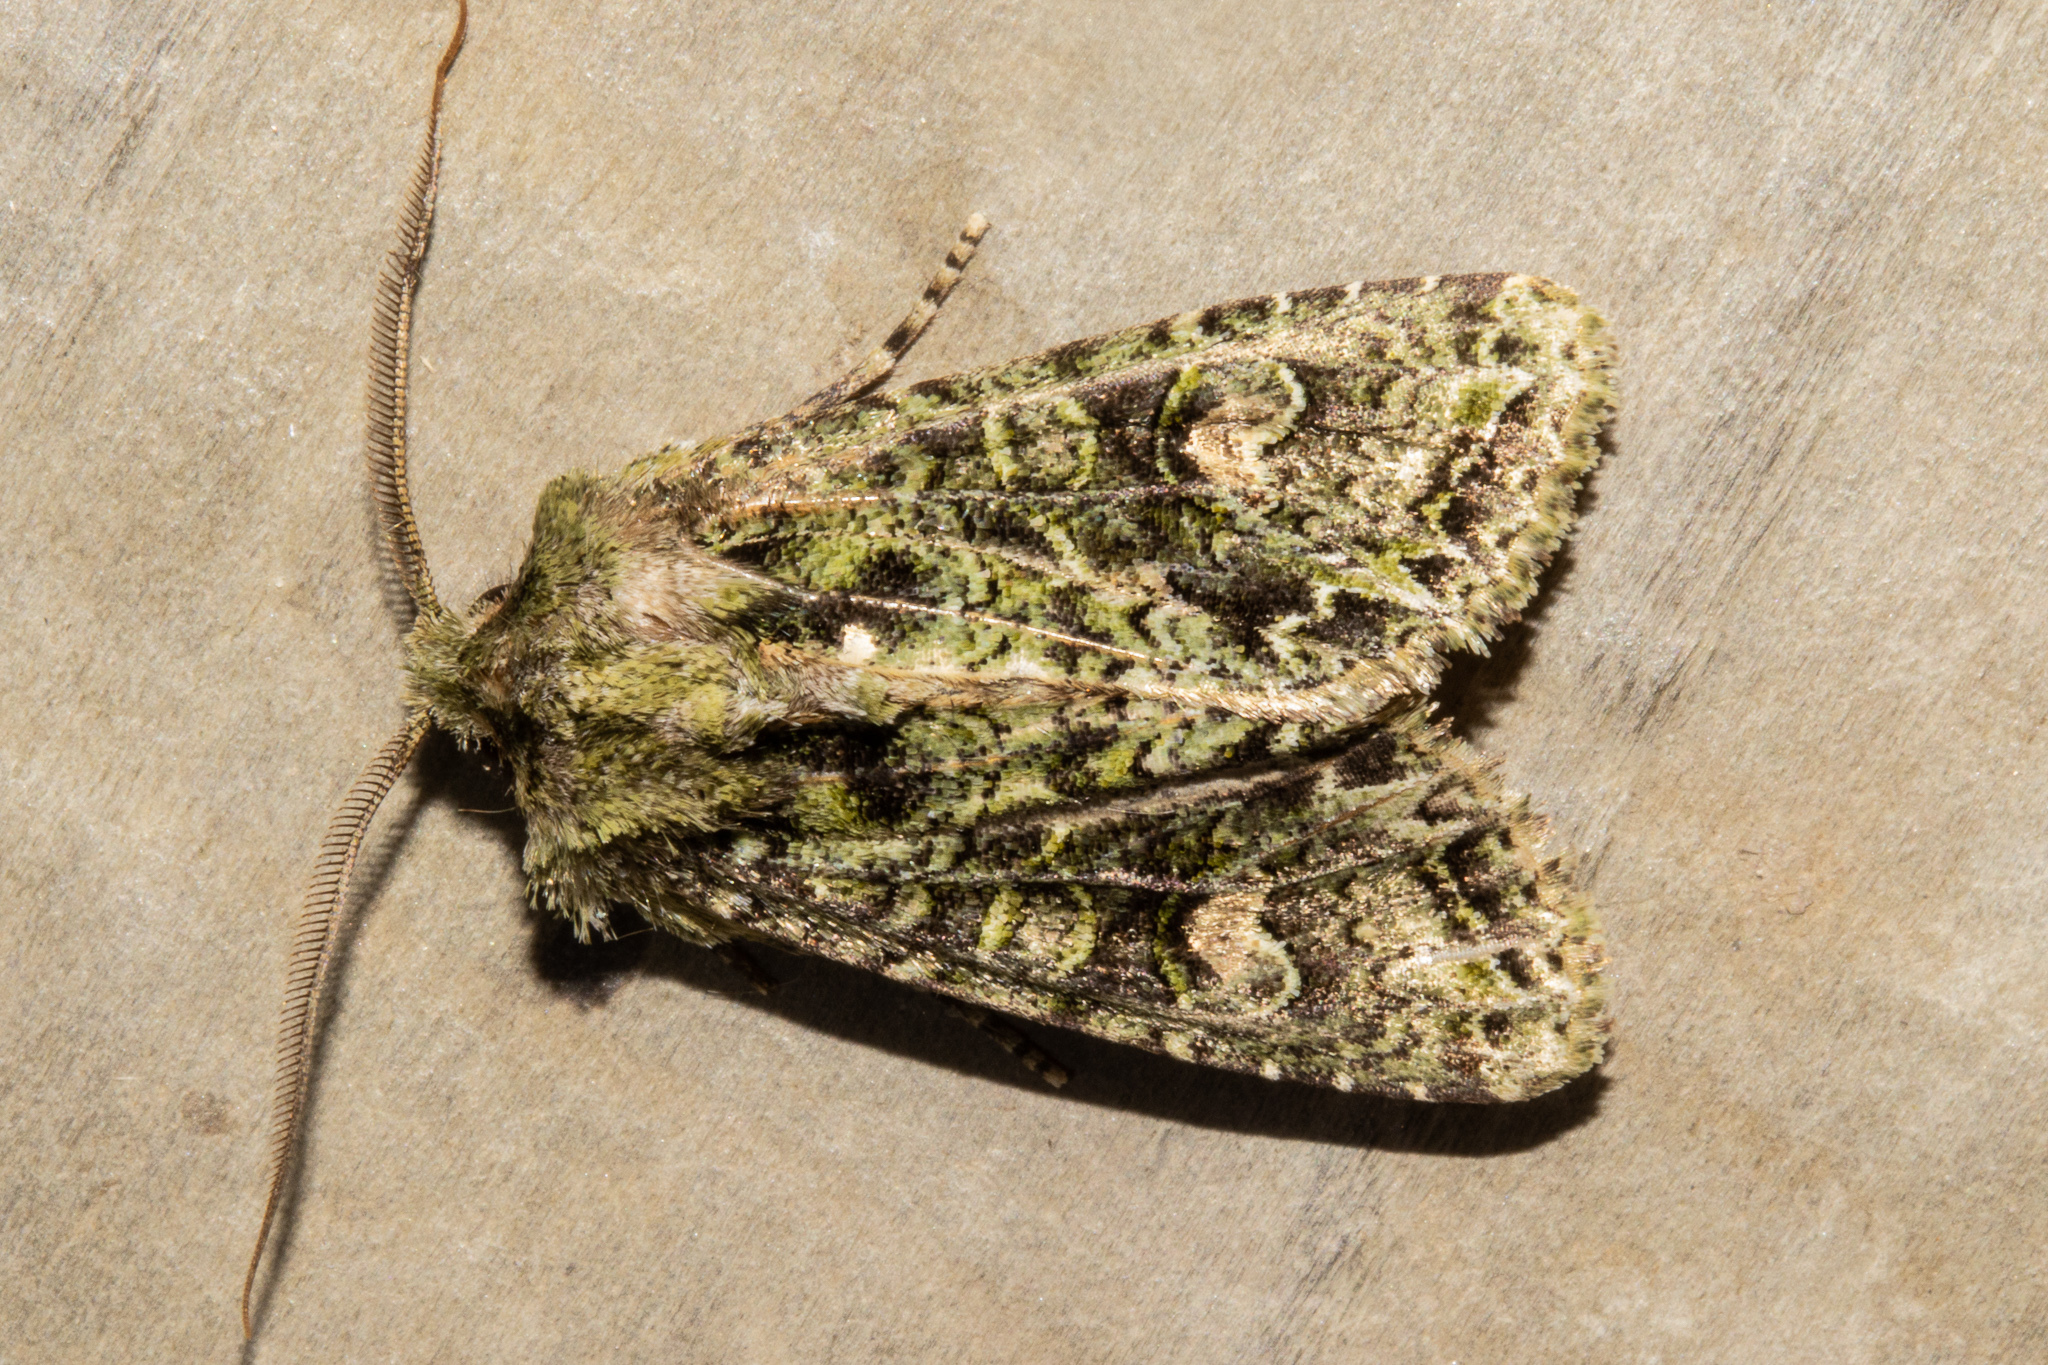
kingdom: Animalia
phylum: Arthropoda
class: Insecta
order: Lepidoptera
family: Noctuidae
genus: Ichneutica
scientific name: Ichneutica
